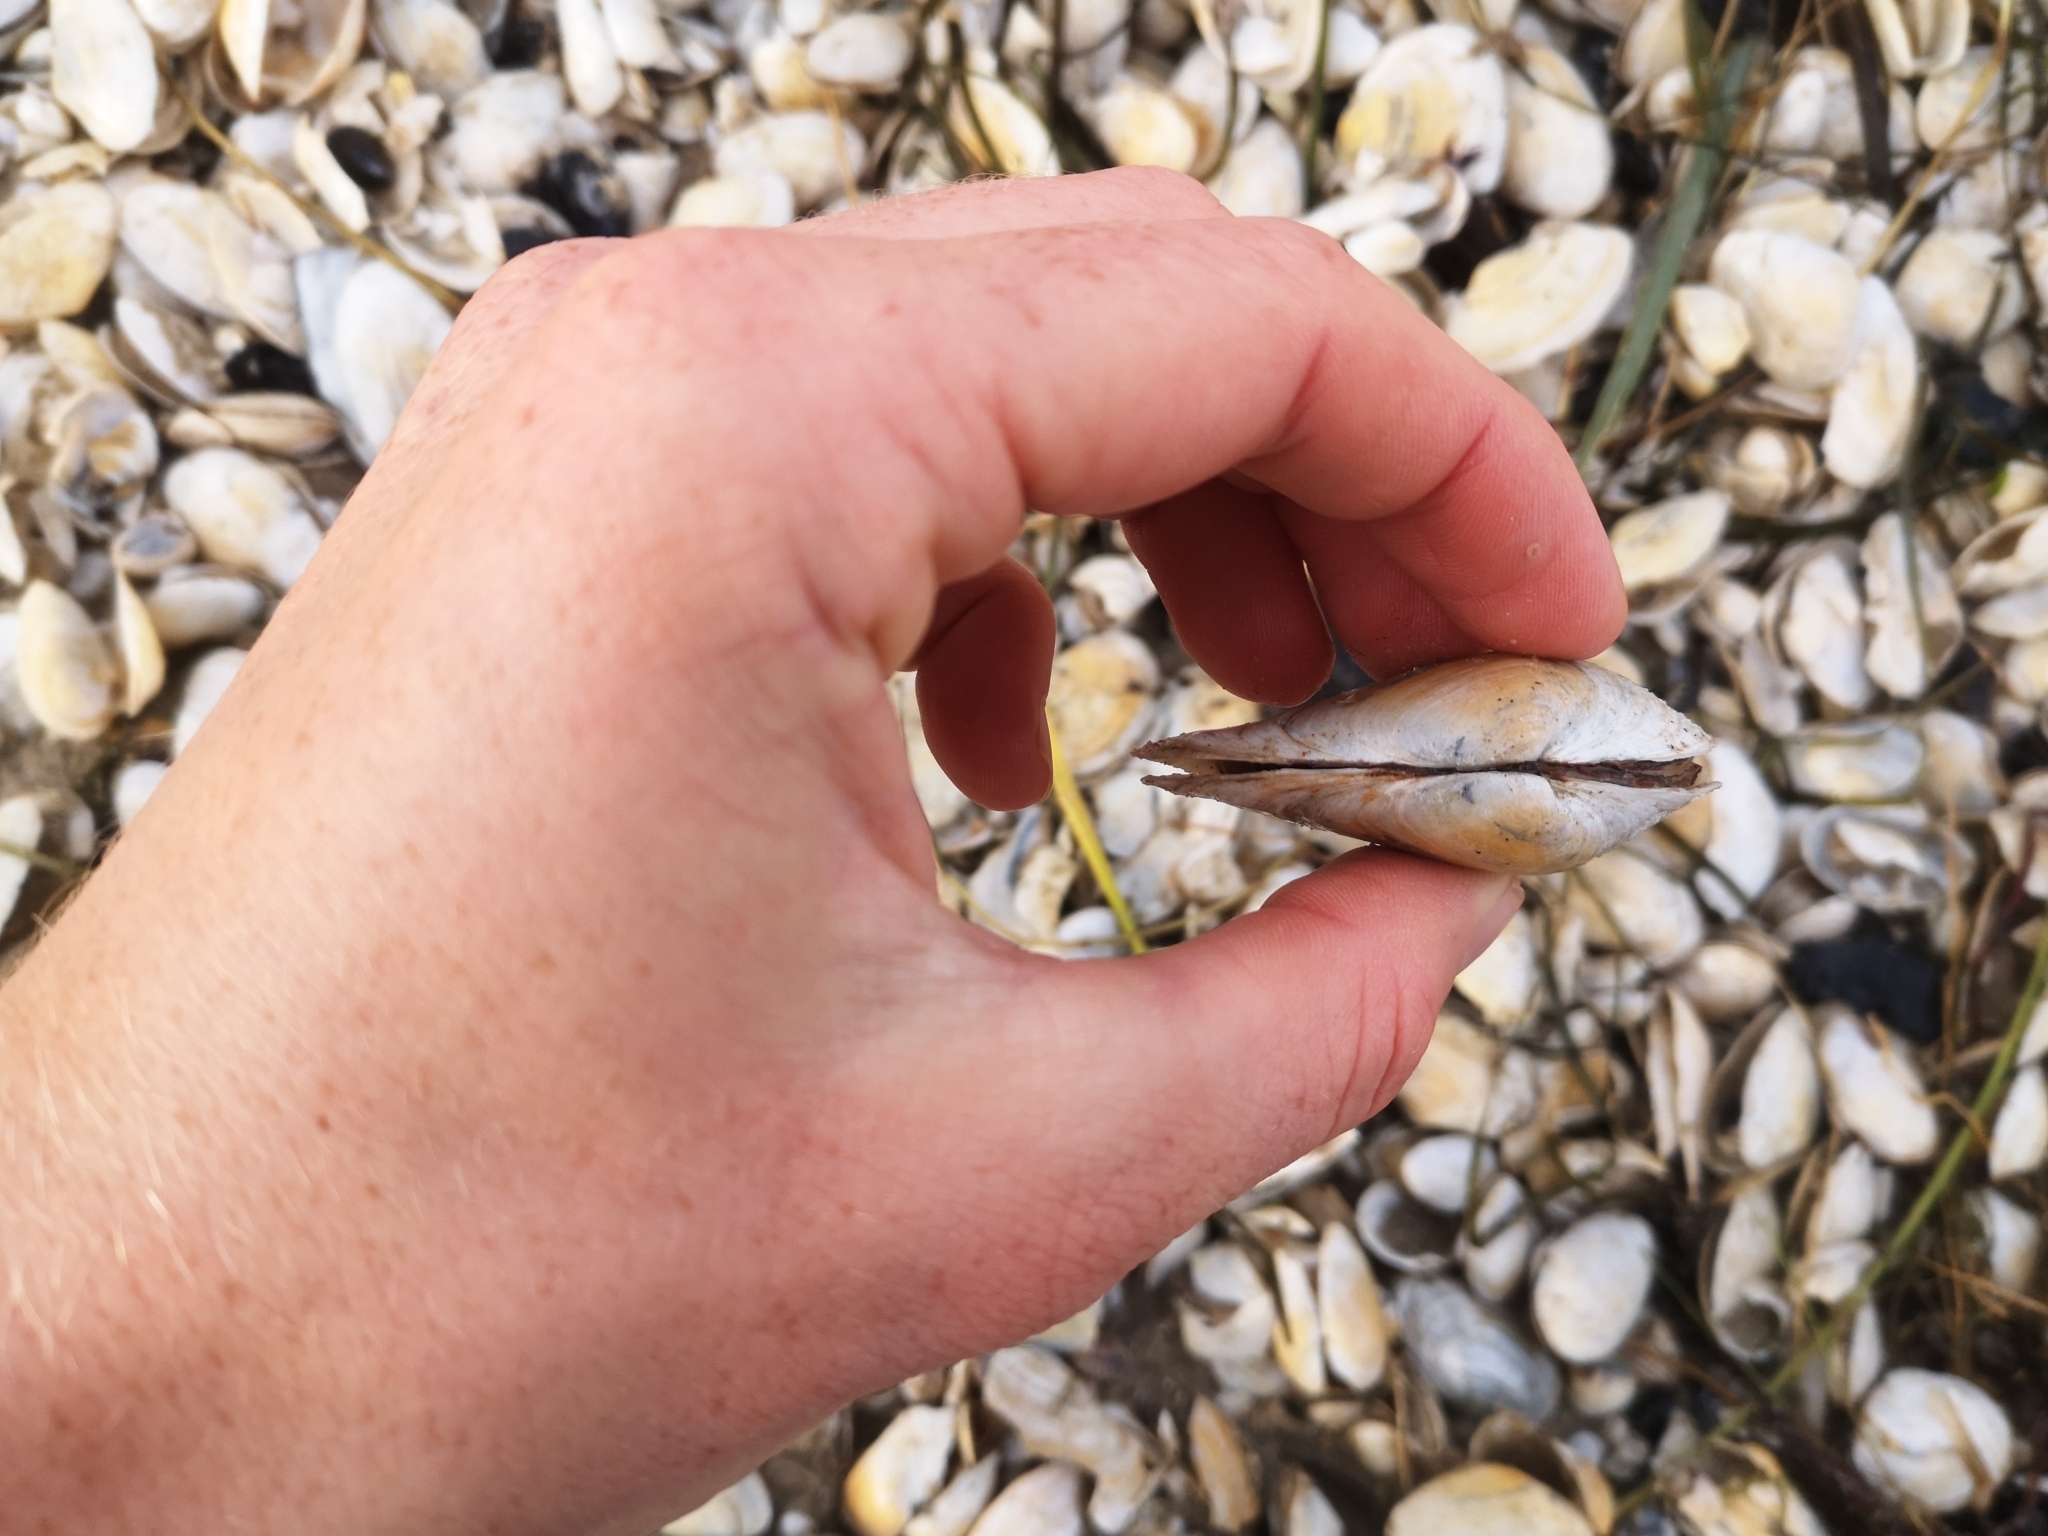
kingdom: Animalia
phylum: Mollusca
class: Bivalvia
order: Myida
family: Myidae
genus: Mya
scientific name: Mya arenaria
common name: Soft-shelled clam
